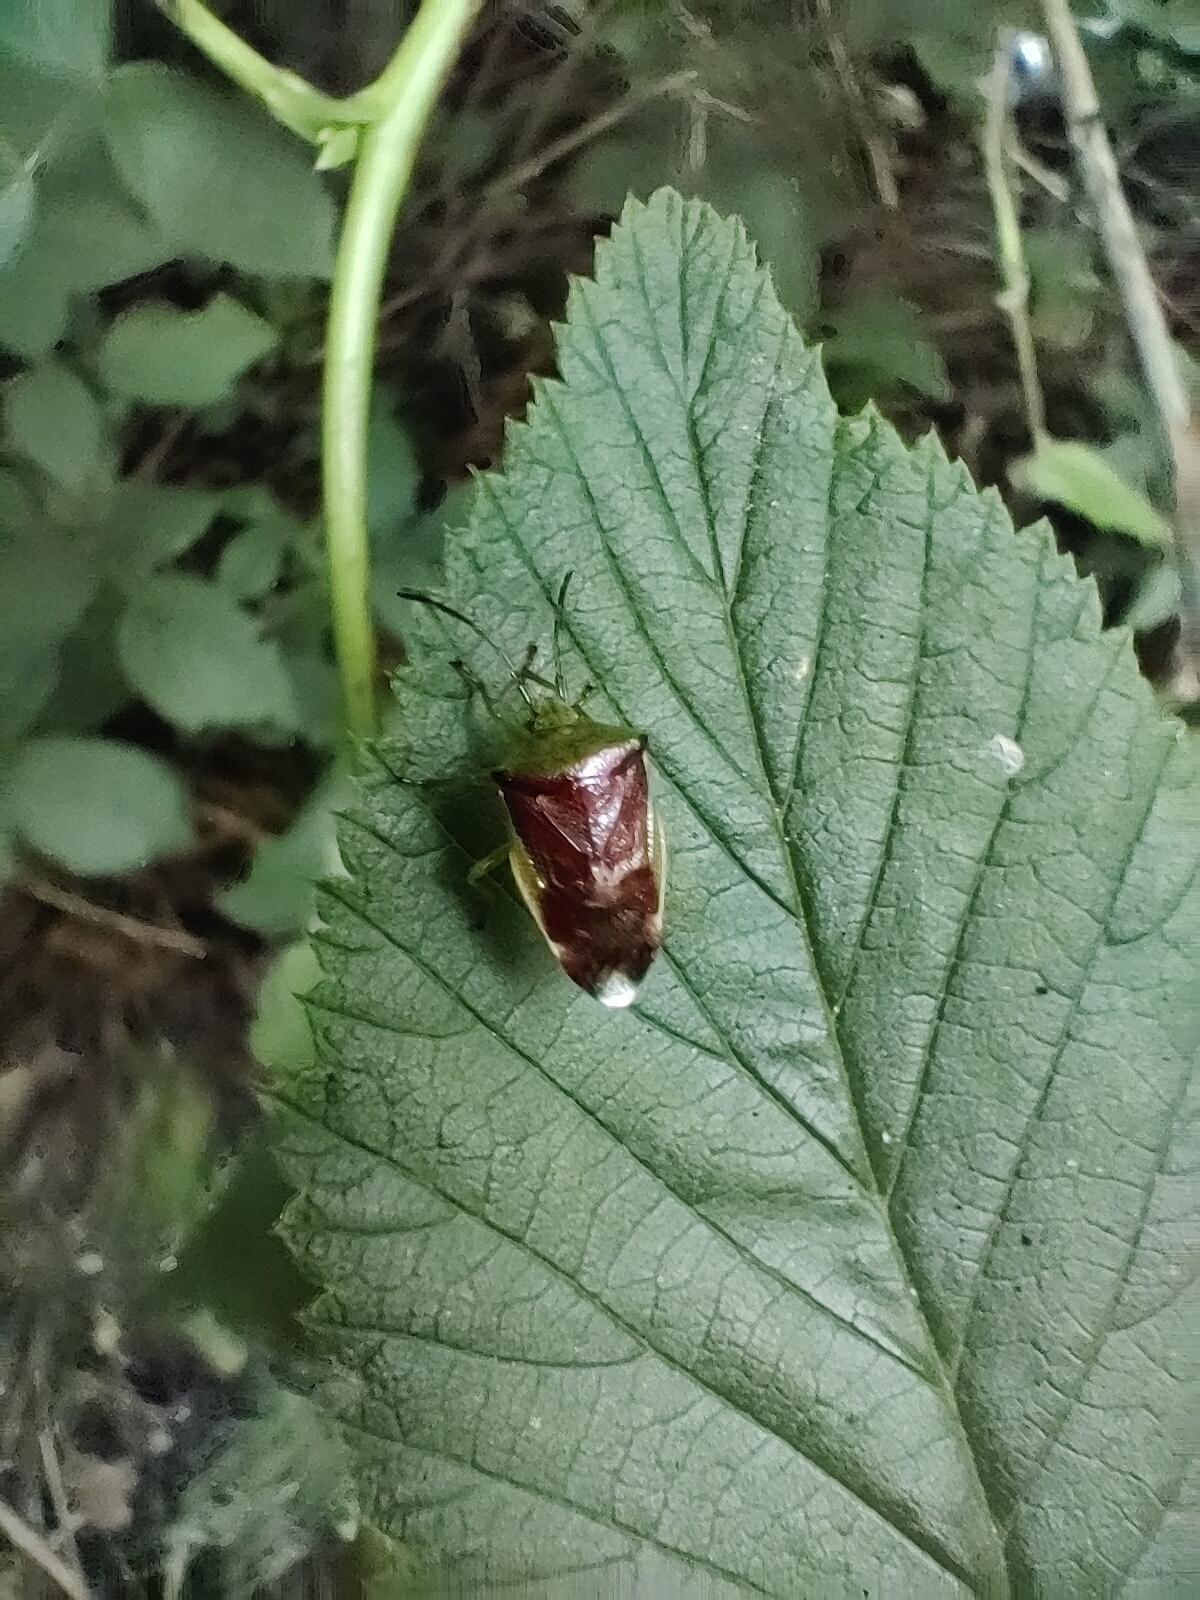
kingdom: Animalia
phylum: Arthropoda
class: Insecta
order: Hemiptera
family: Acanthosomatidae
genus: Elasmostethus
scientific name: Elasmostethus interstinctus
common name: Birch shieldbug
